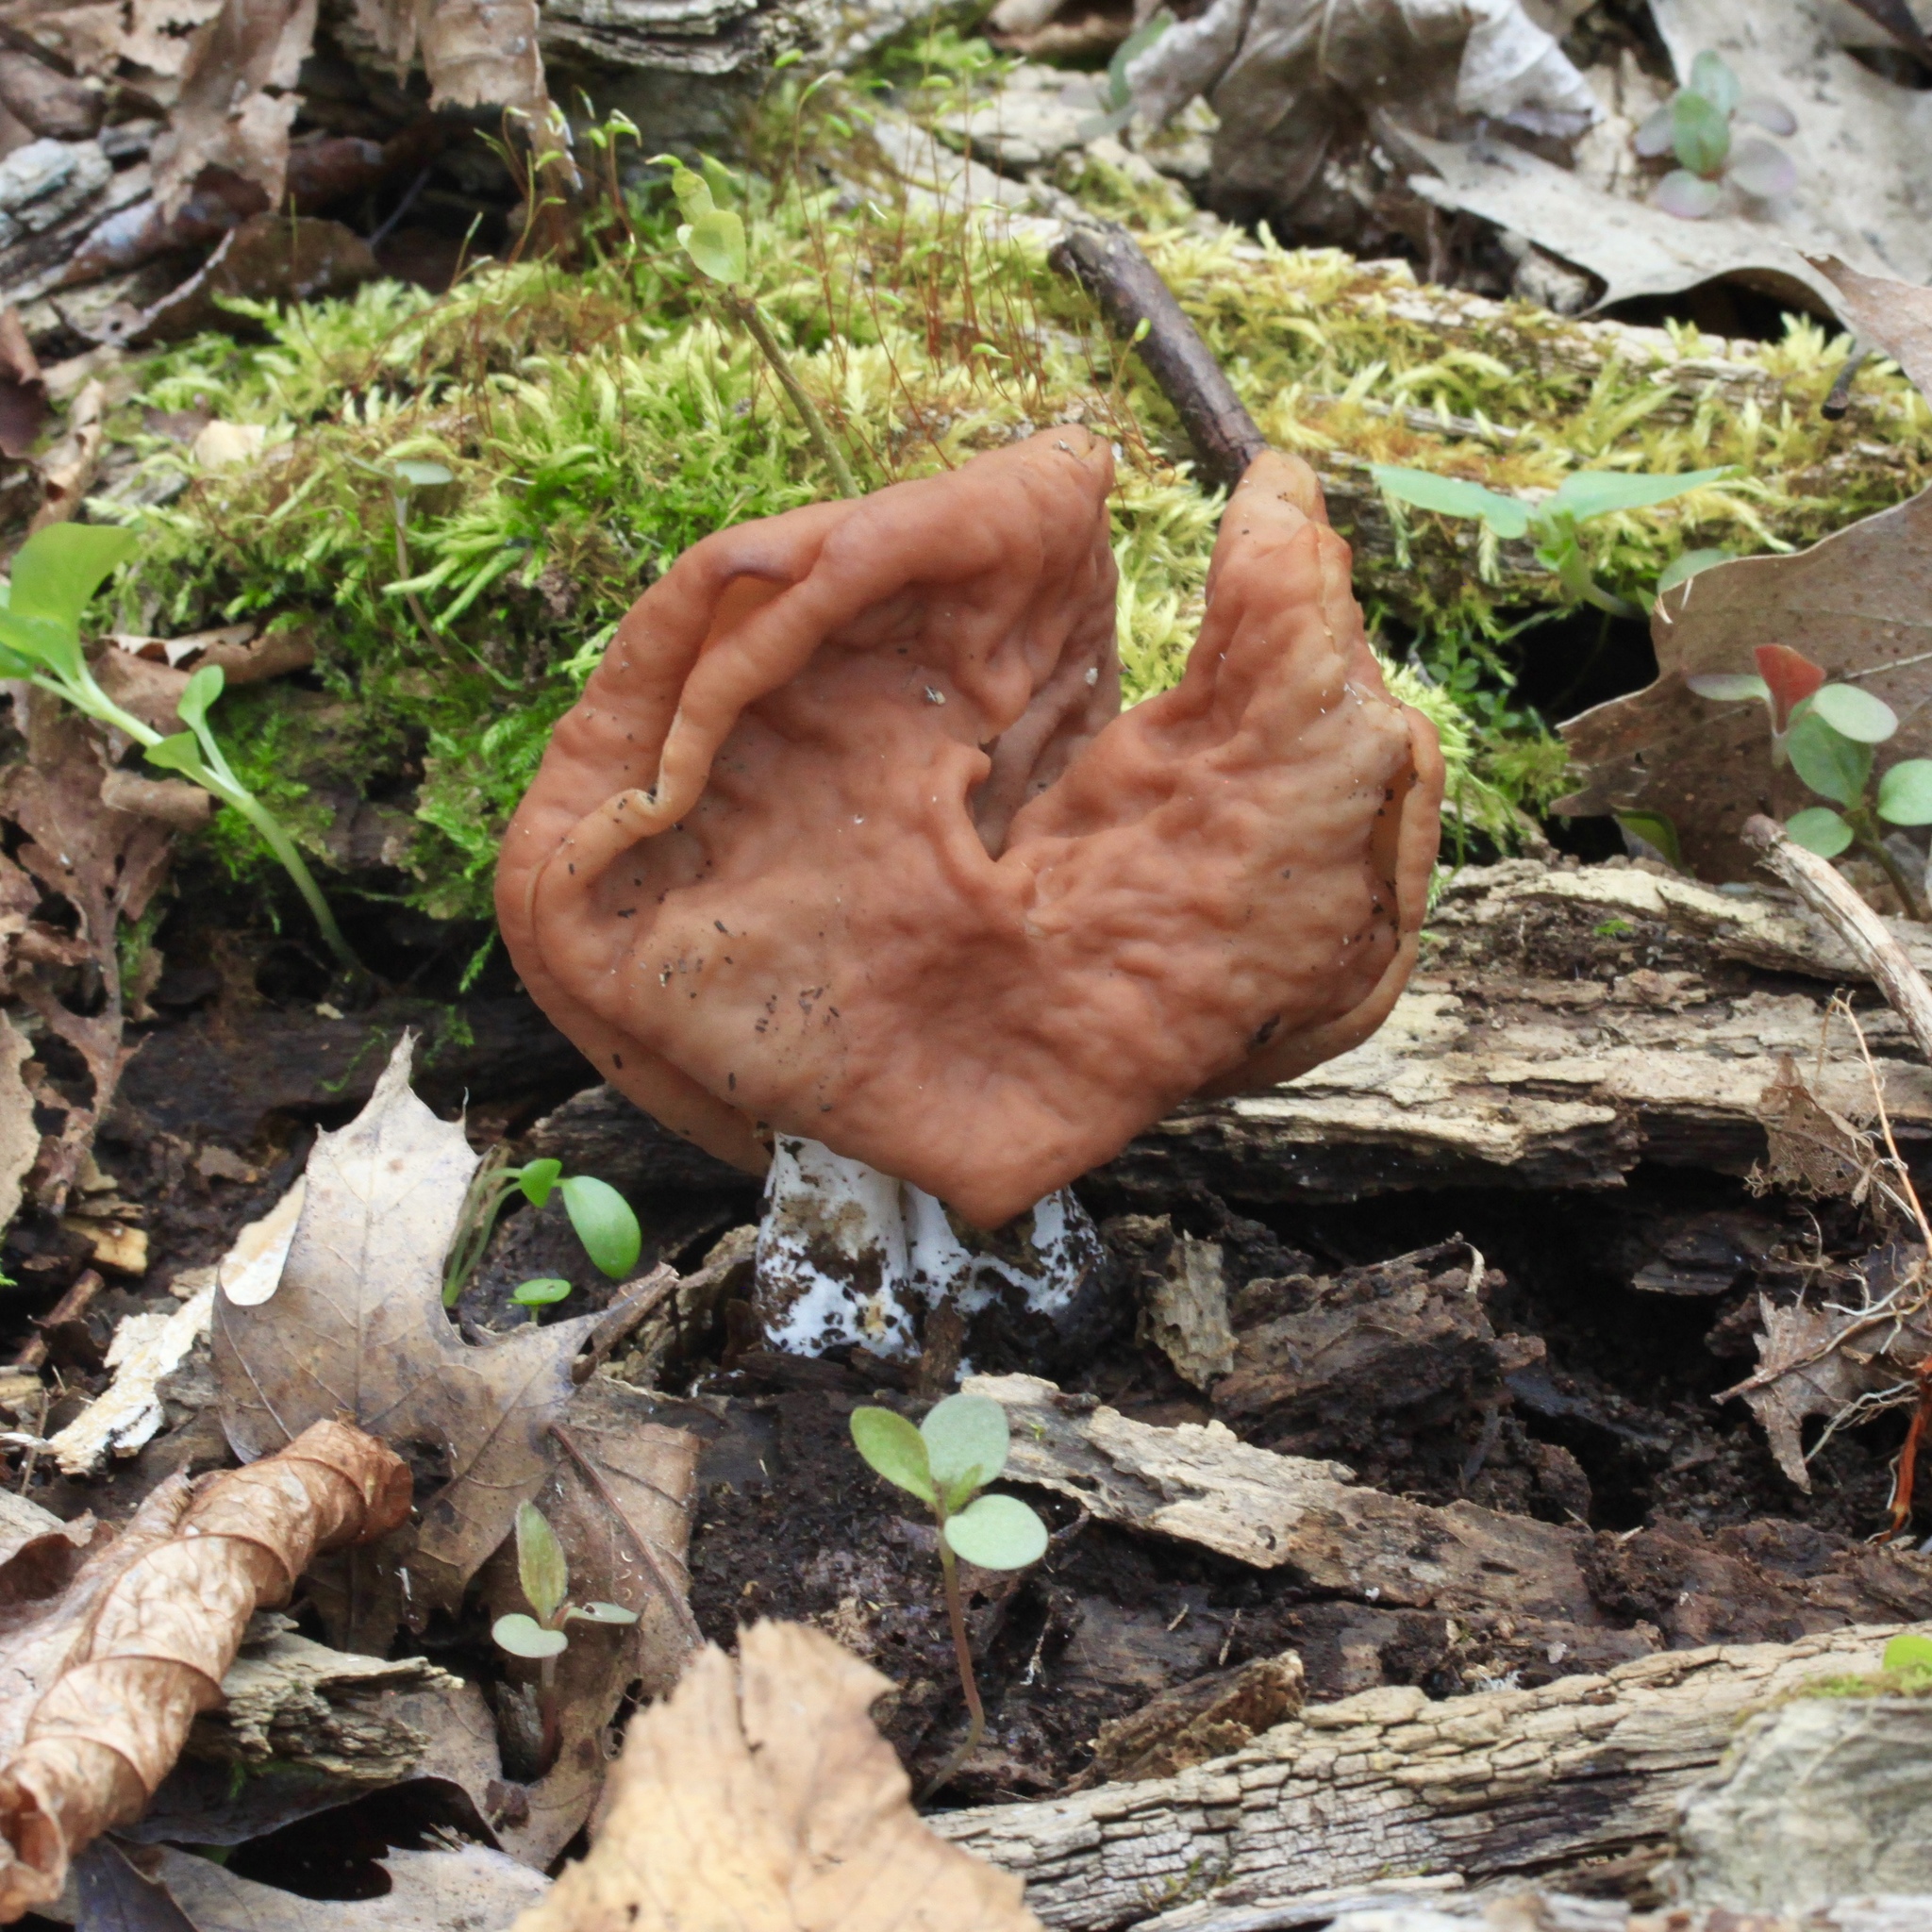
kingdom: Fungi
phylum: Ascomycota
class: Pezizomycetes
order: Pezizales
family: Discinaceae
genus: Discina
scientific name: Discina brunnea
